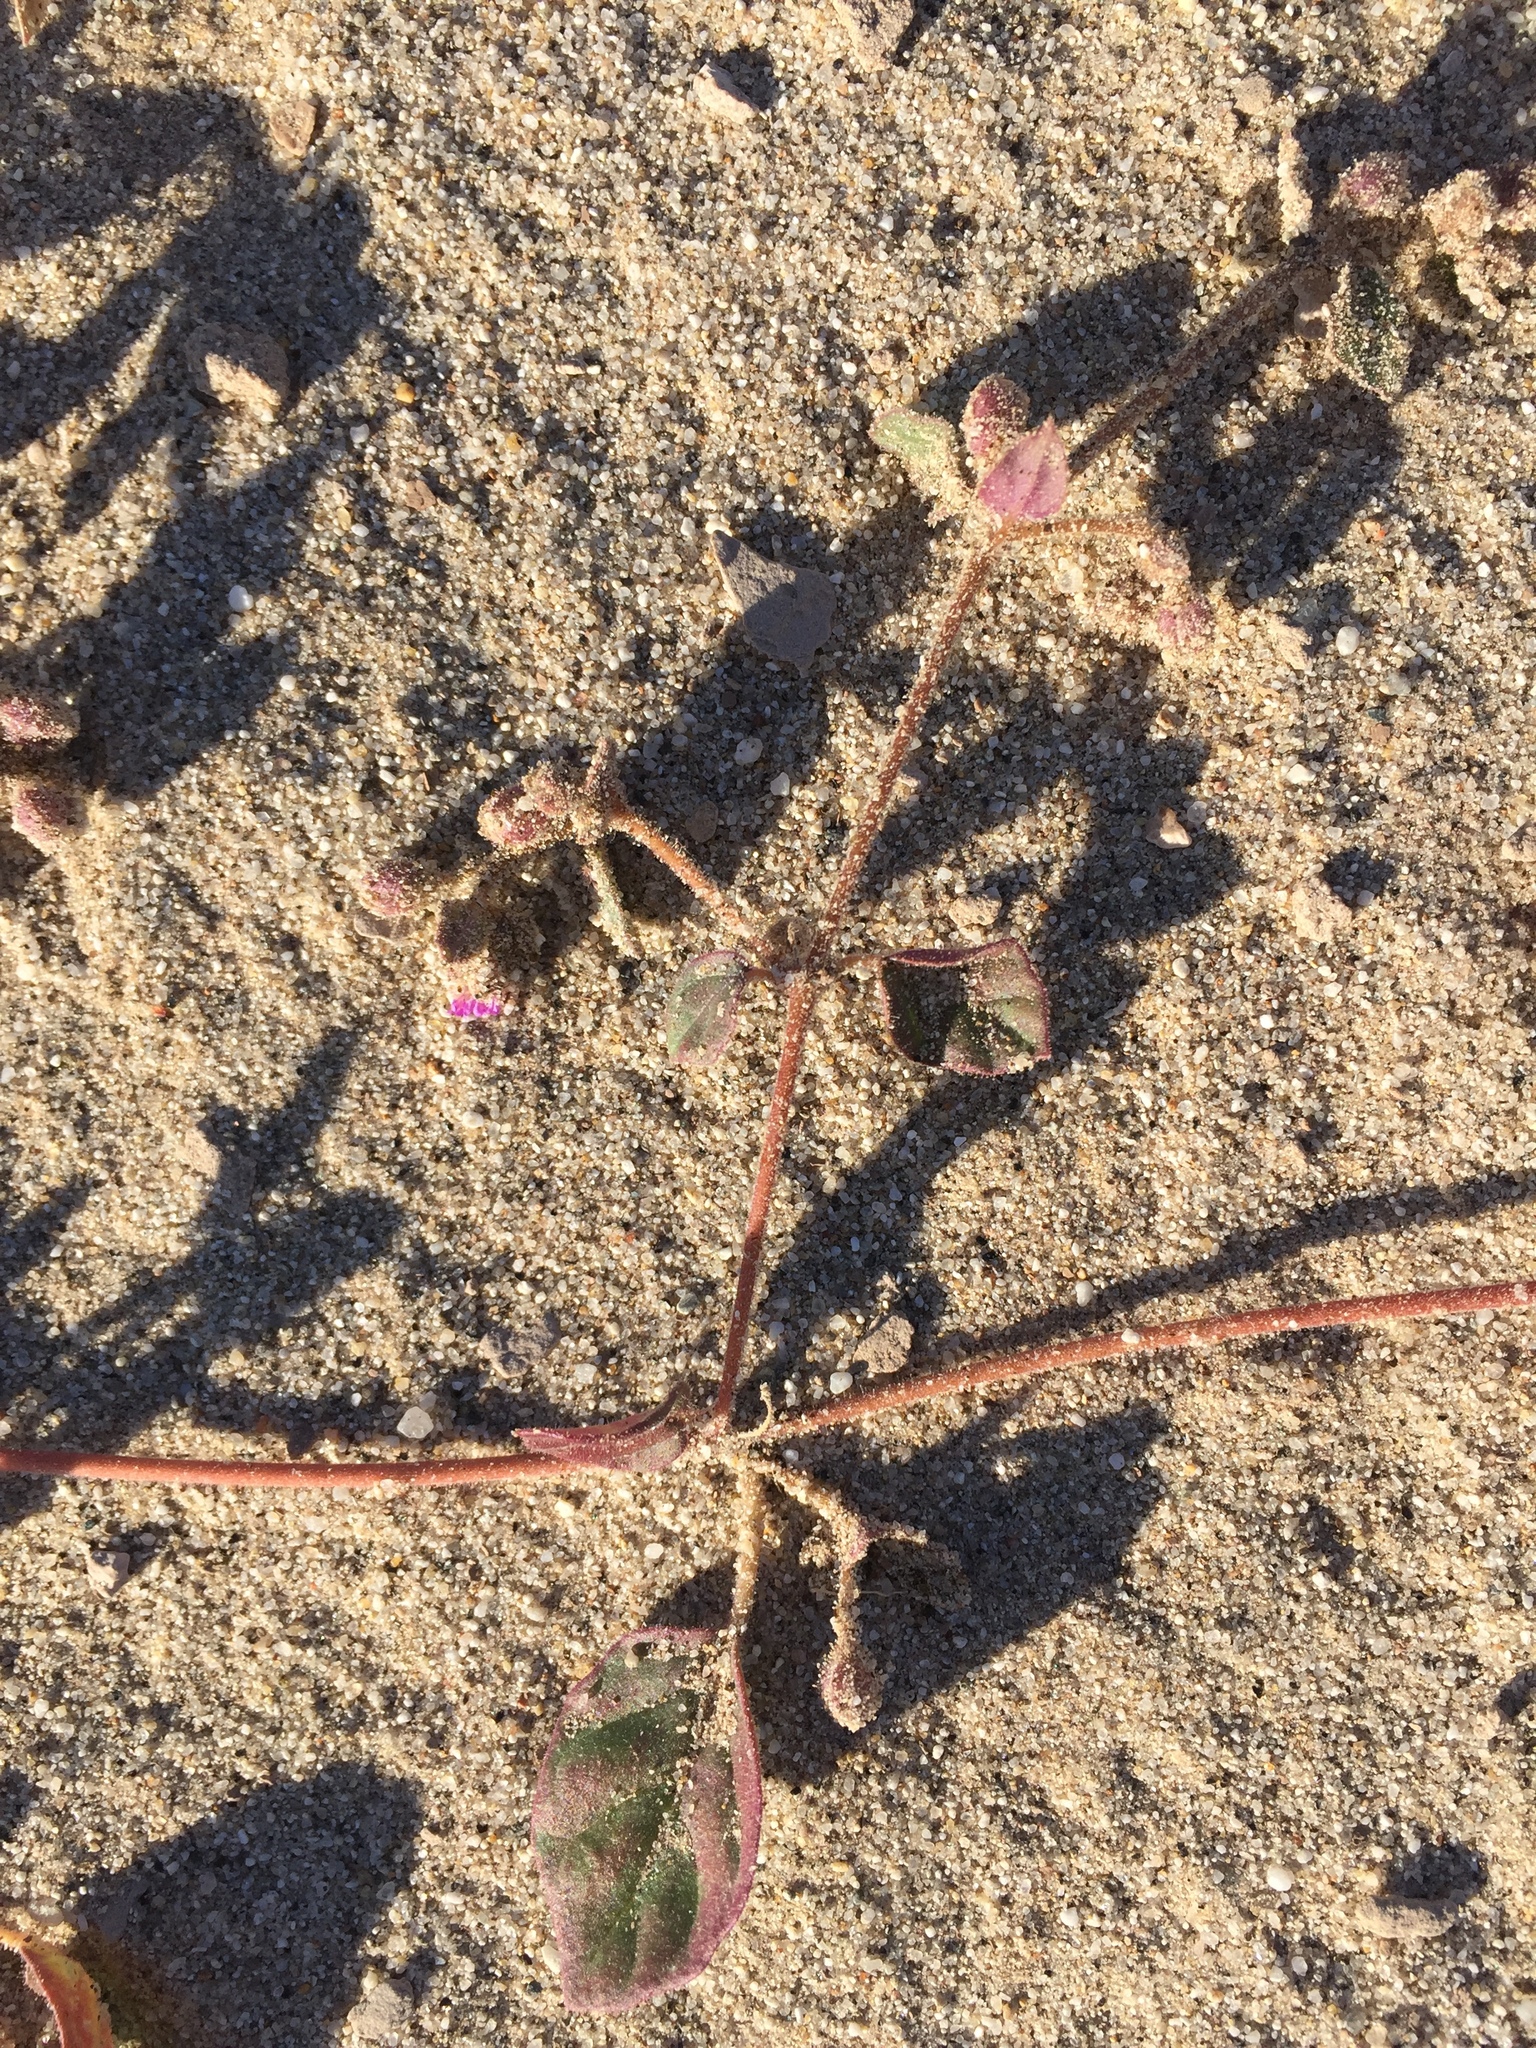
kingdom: Plantae
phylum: Tracheophyta
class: Magnoliopsida
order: Caryophyllales
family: Nyctaginaceae
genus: Allionia
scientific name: Allionia incarnata
